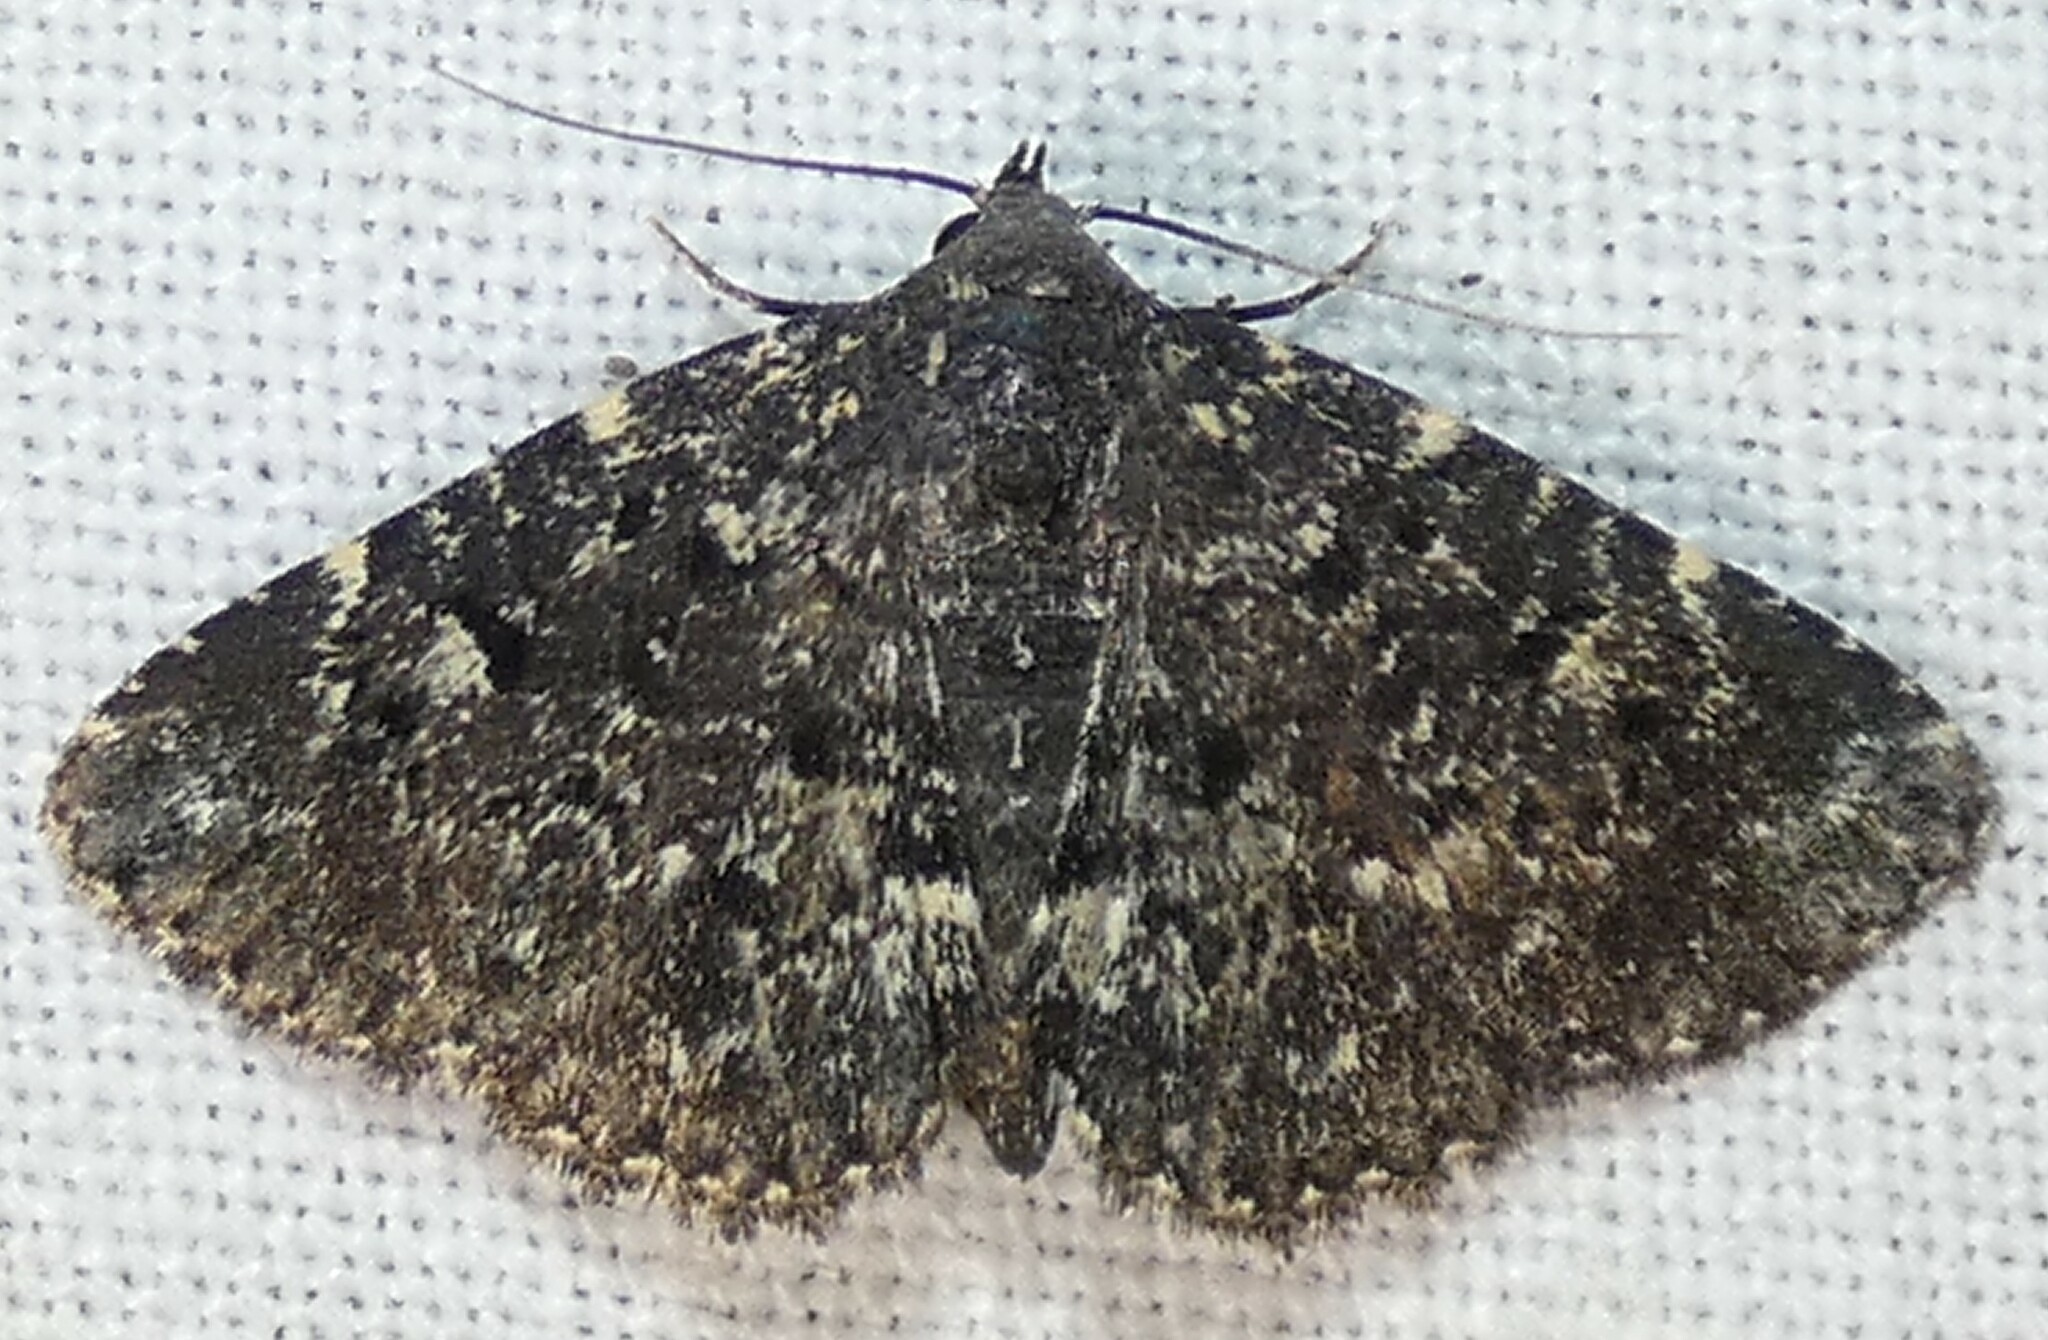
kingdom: Animalia
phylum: Arthropoda
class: Insecta
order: Lepidoptera
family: Erebidae
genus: Metalectra
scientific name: Metalectra diabolica
